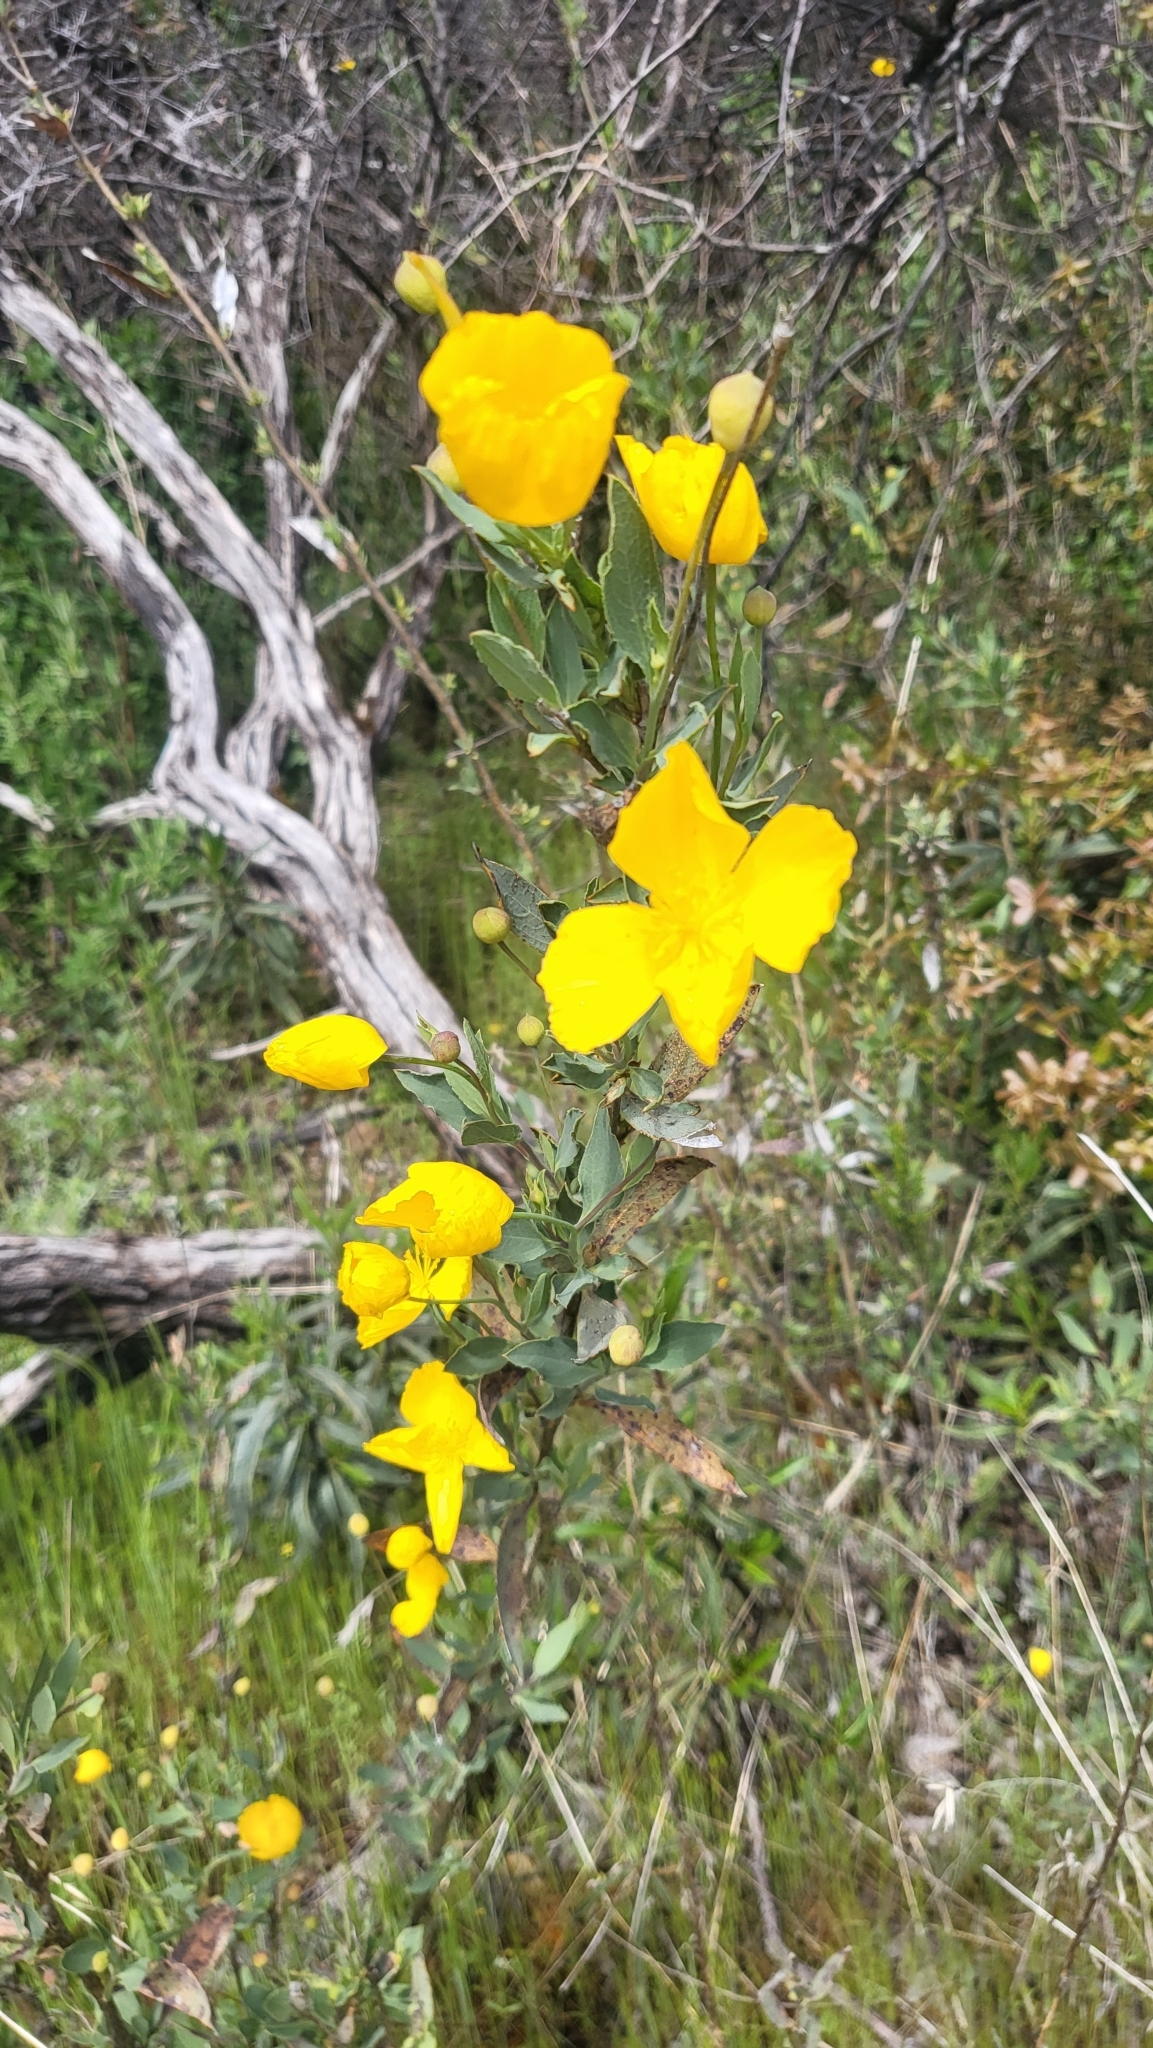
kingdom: Plantae
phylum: Tracheophyta
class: Magnoliopsida
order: Ranunculales
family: Papaveraceae
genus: Dendromecon
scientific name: Dendromecon rigida
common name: Tree poppy
